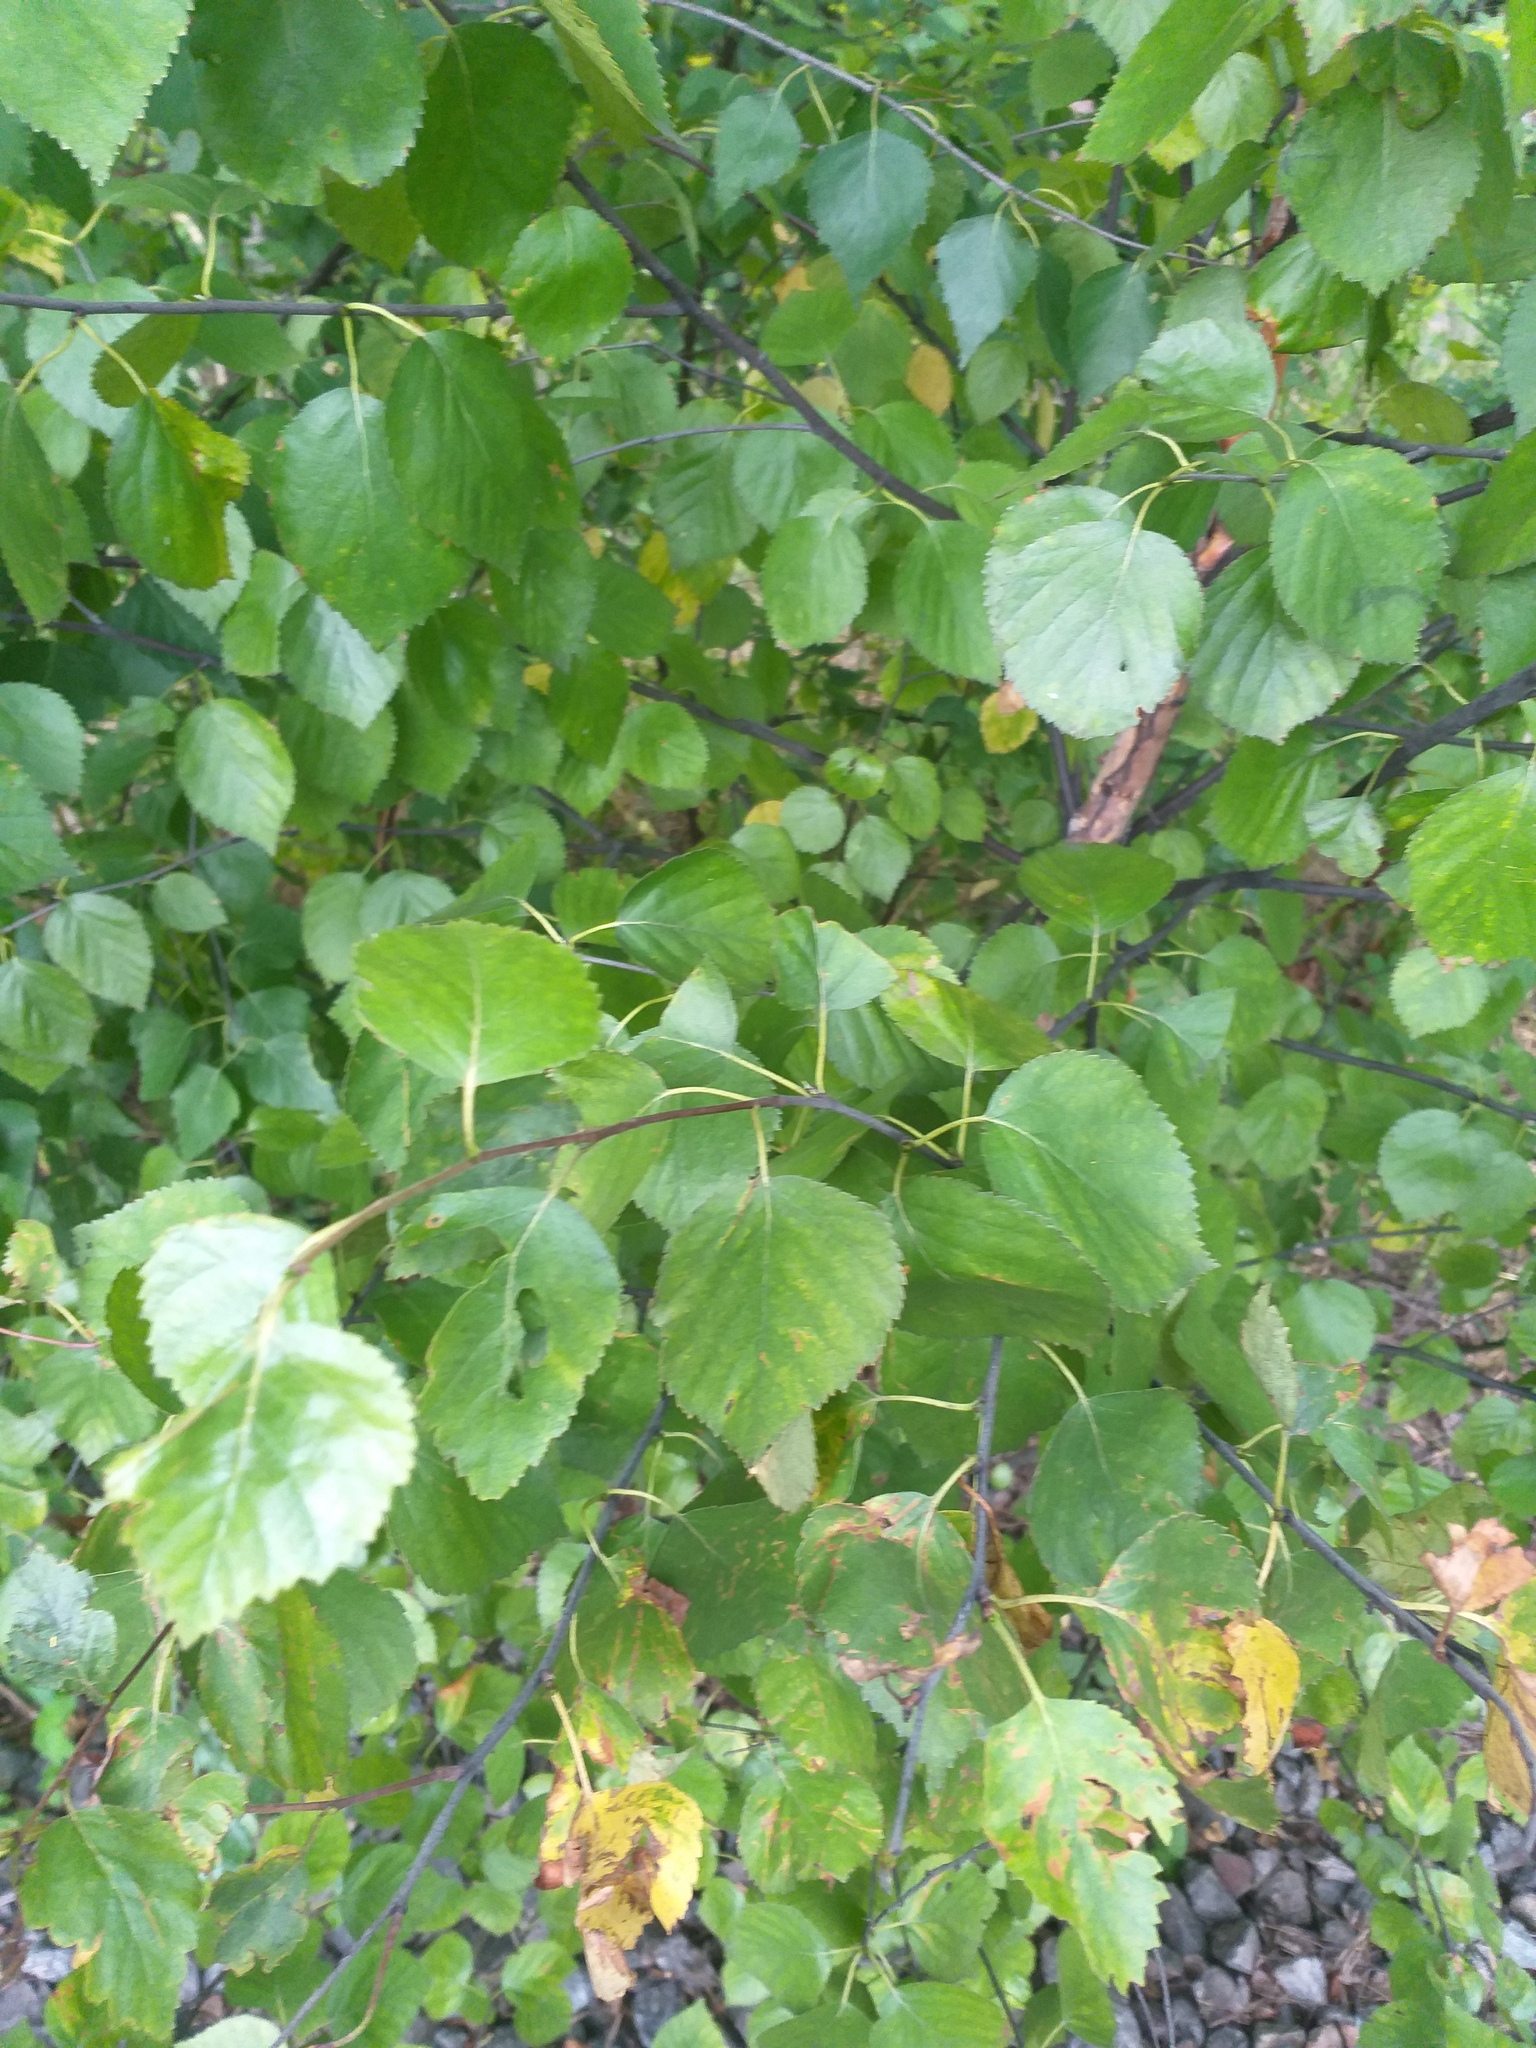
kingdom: Plantae
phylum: Tracheophyta
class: Magnoliopsida
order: Fagales
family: Betulaceae
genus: Betula
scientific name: Betula pubescens
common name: Downy birch
